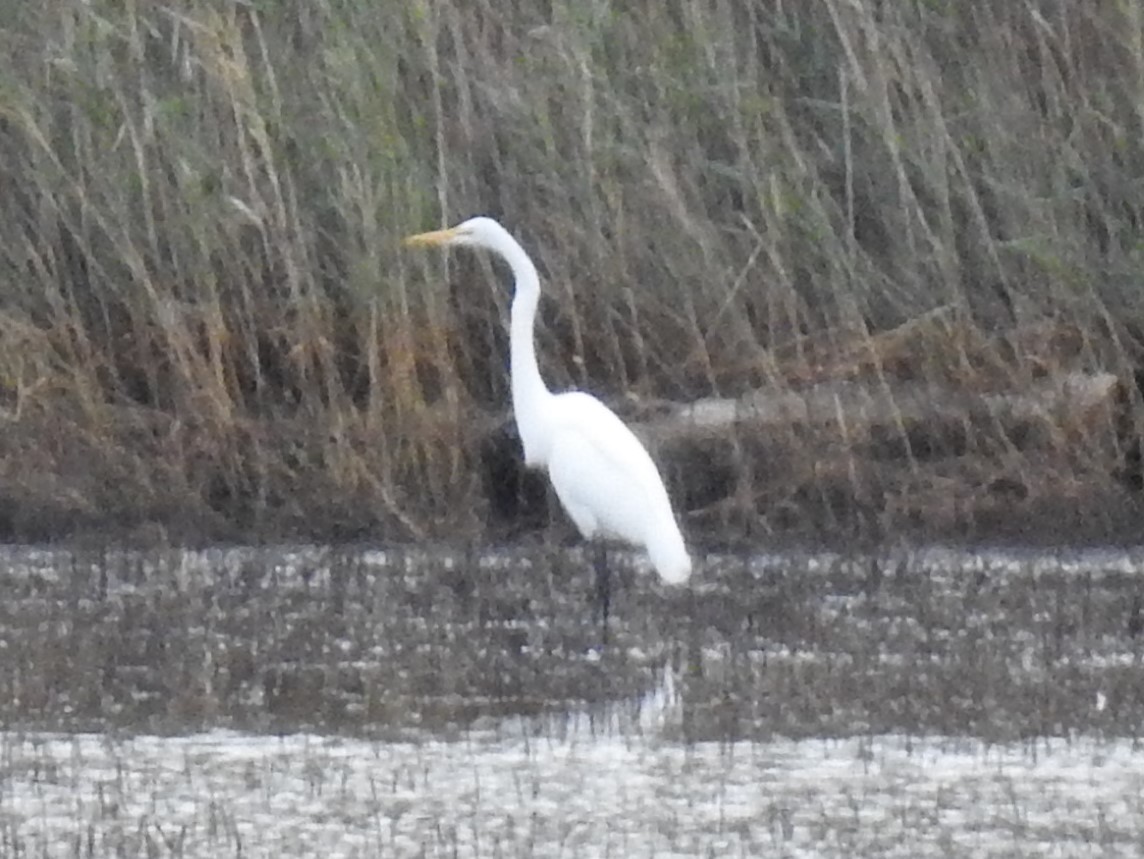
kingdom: Animalia
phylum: Chordata
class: Aves
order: Pelecaniformes
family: Ardeidae
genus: Ardea
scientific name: Ardea alba
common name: Great egret
